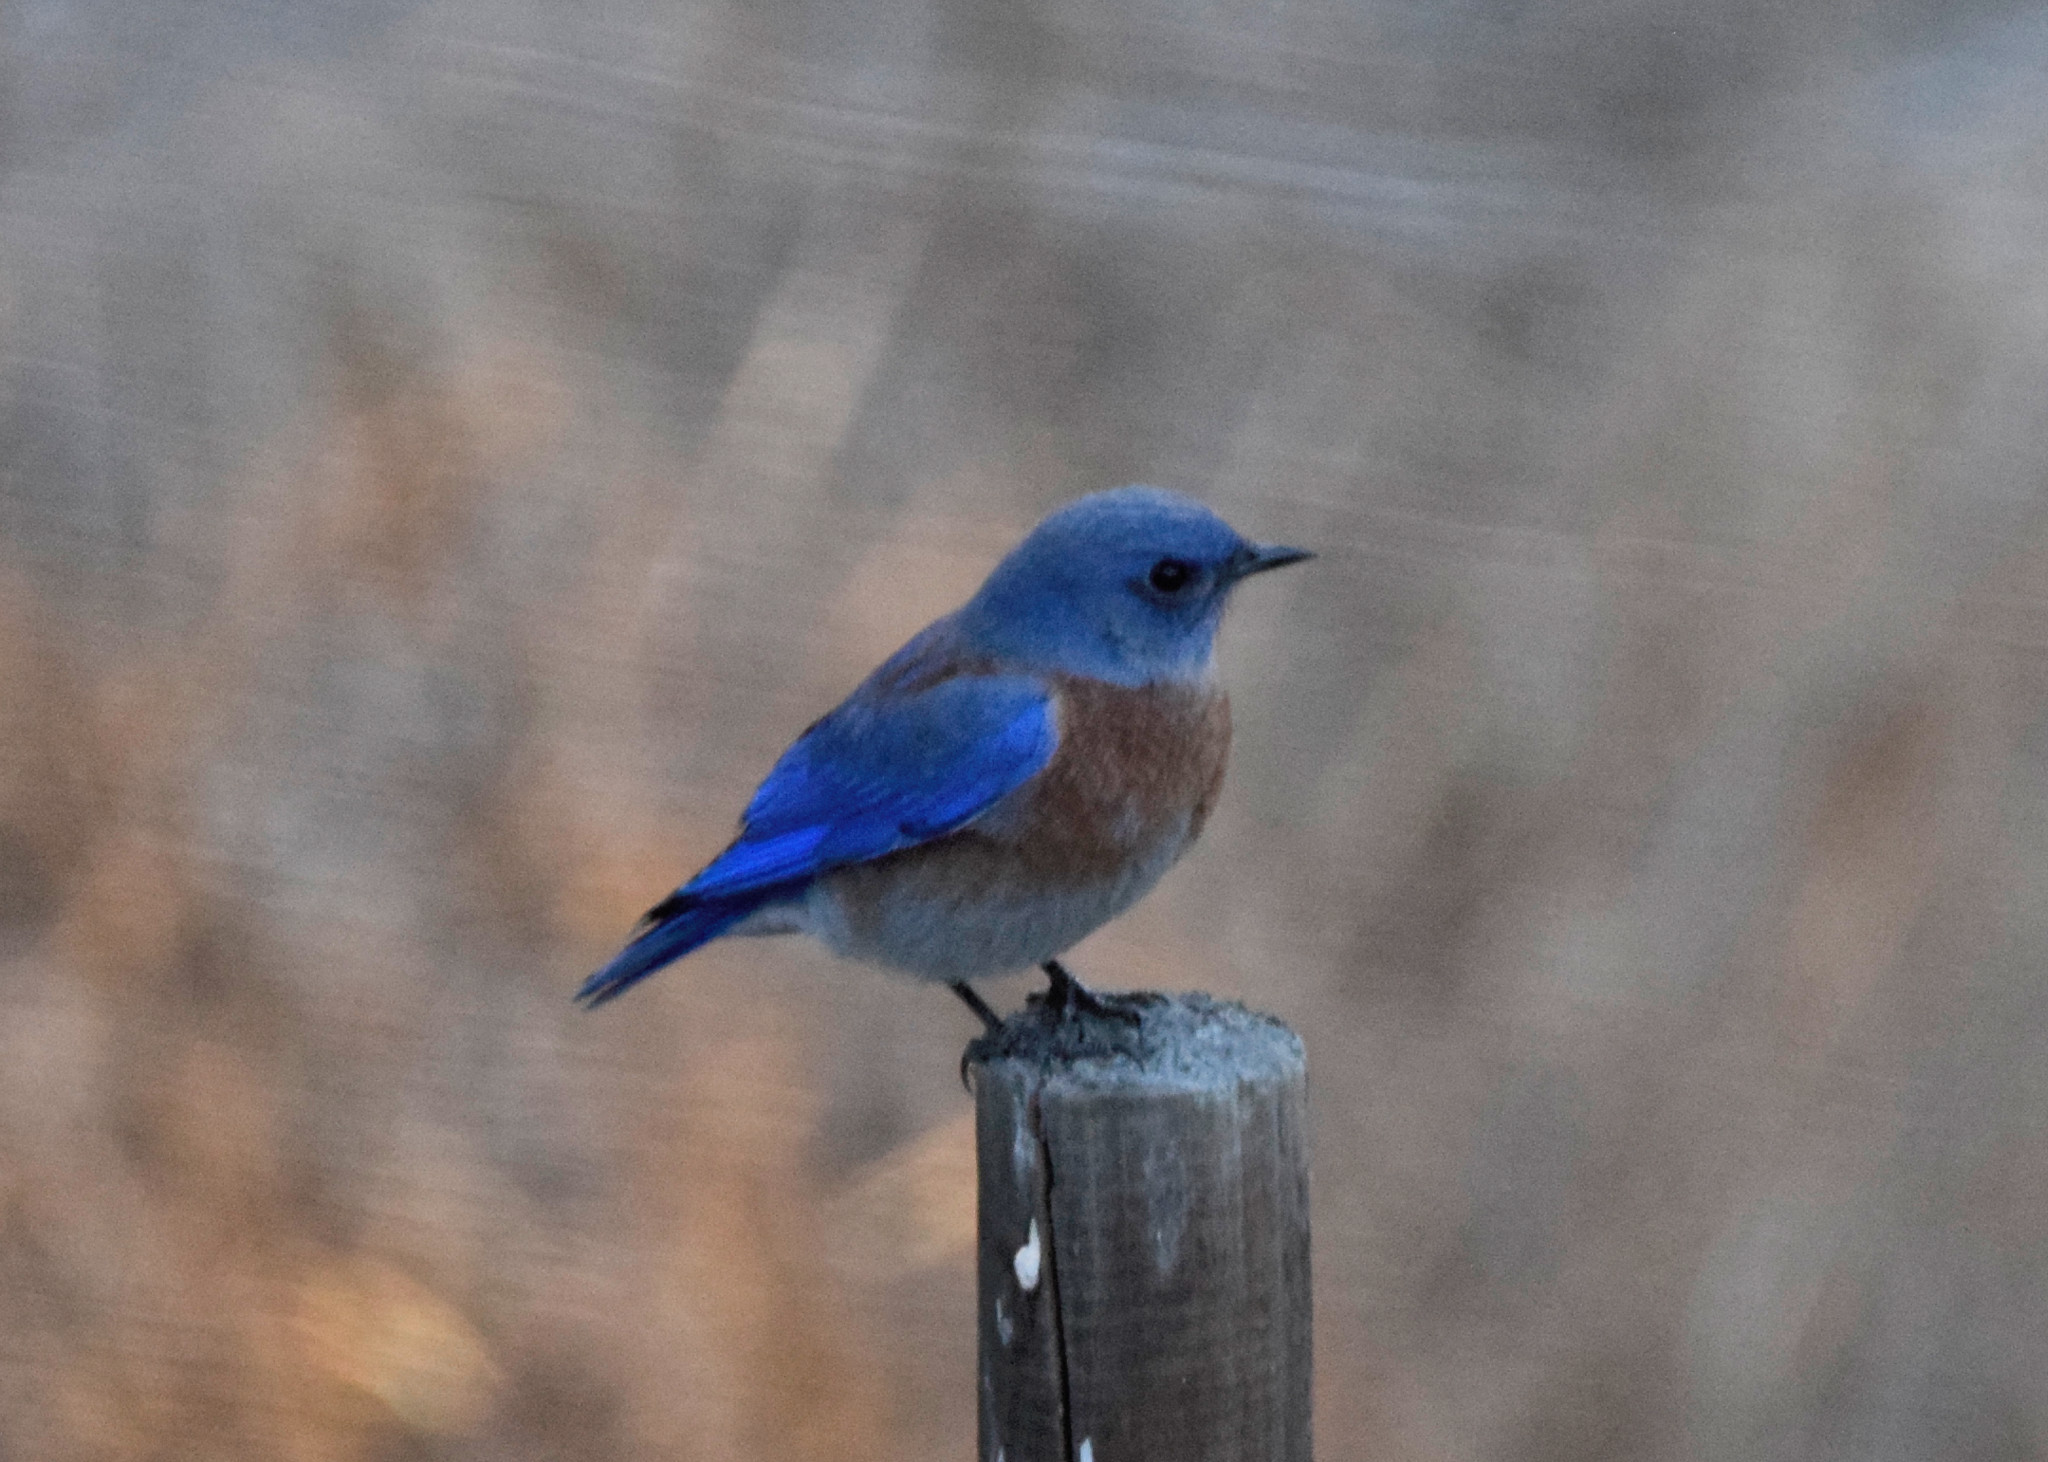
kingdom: Animalia
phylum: Chordata
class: Aves
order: Passeriformes
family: Turdidae
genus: Sialia
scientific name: Sialia mexicana
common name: Western bluebird
